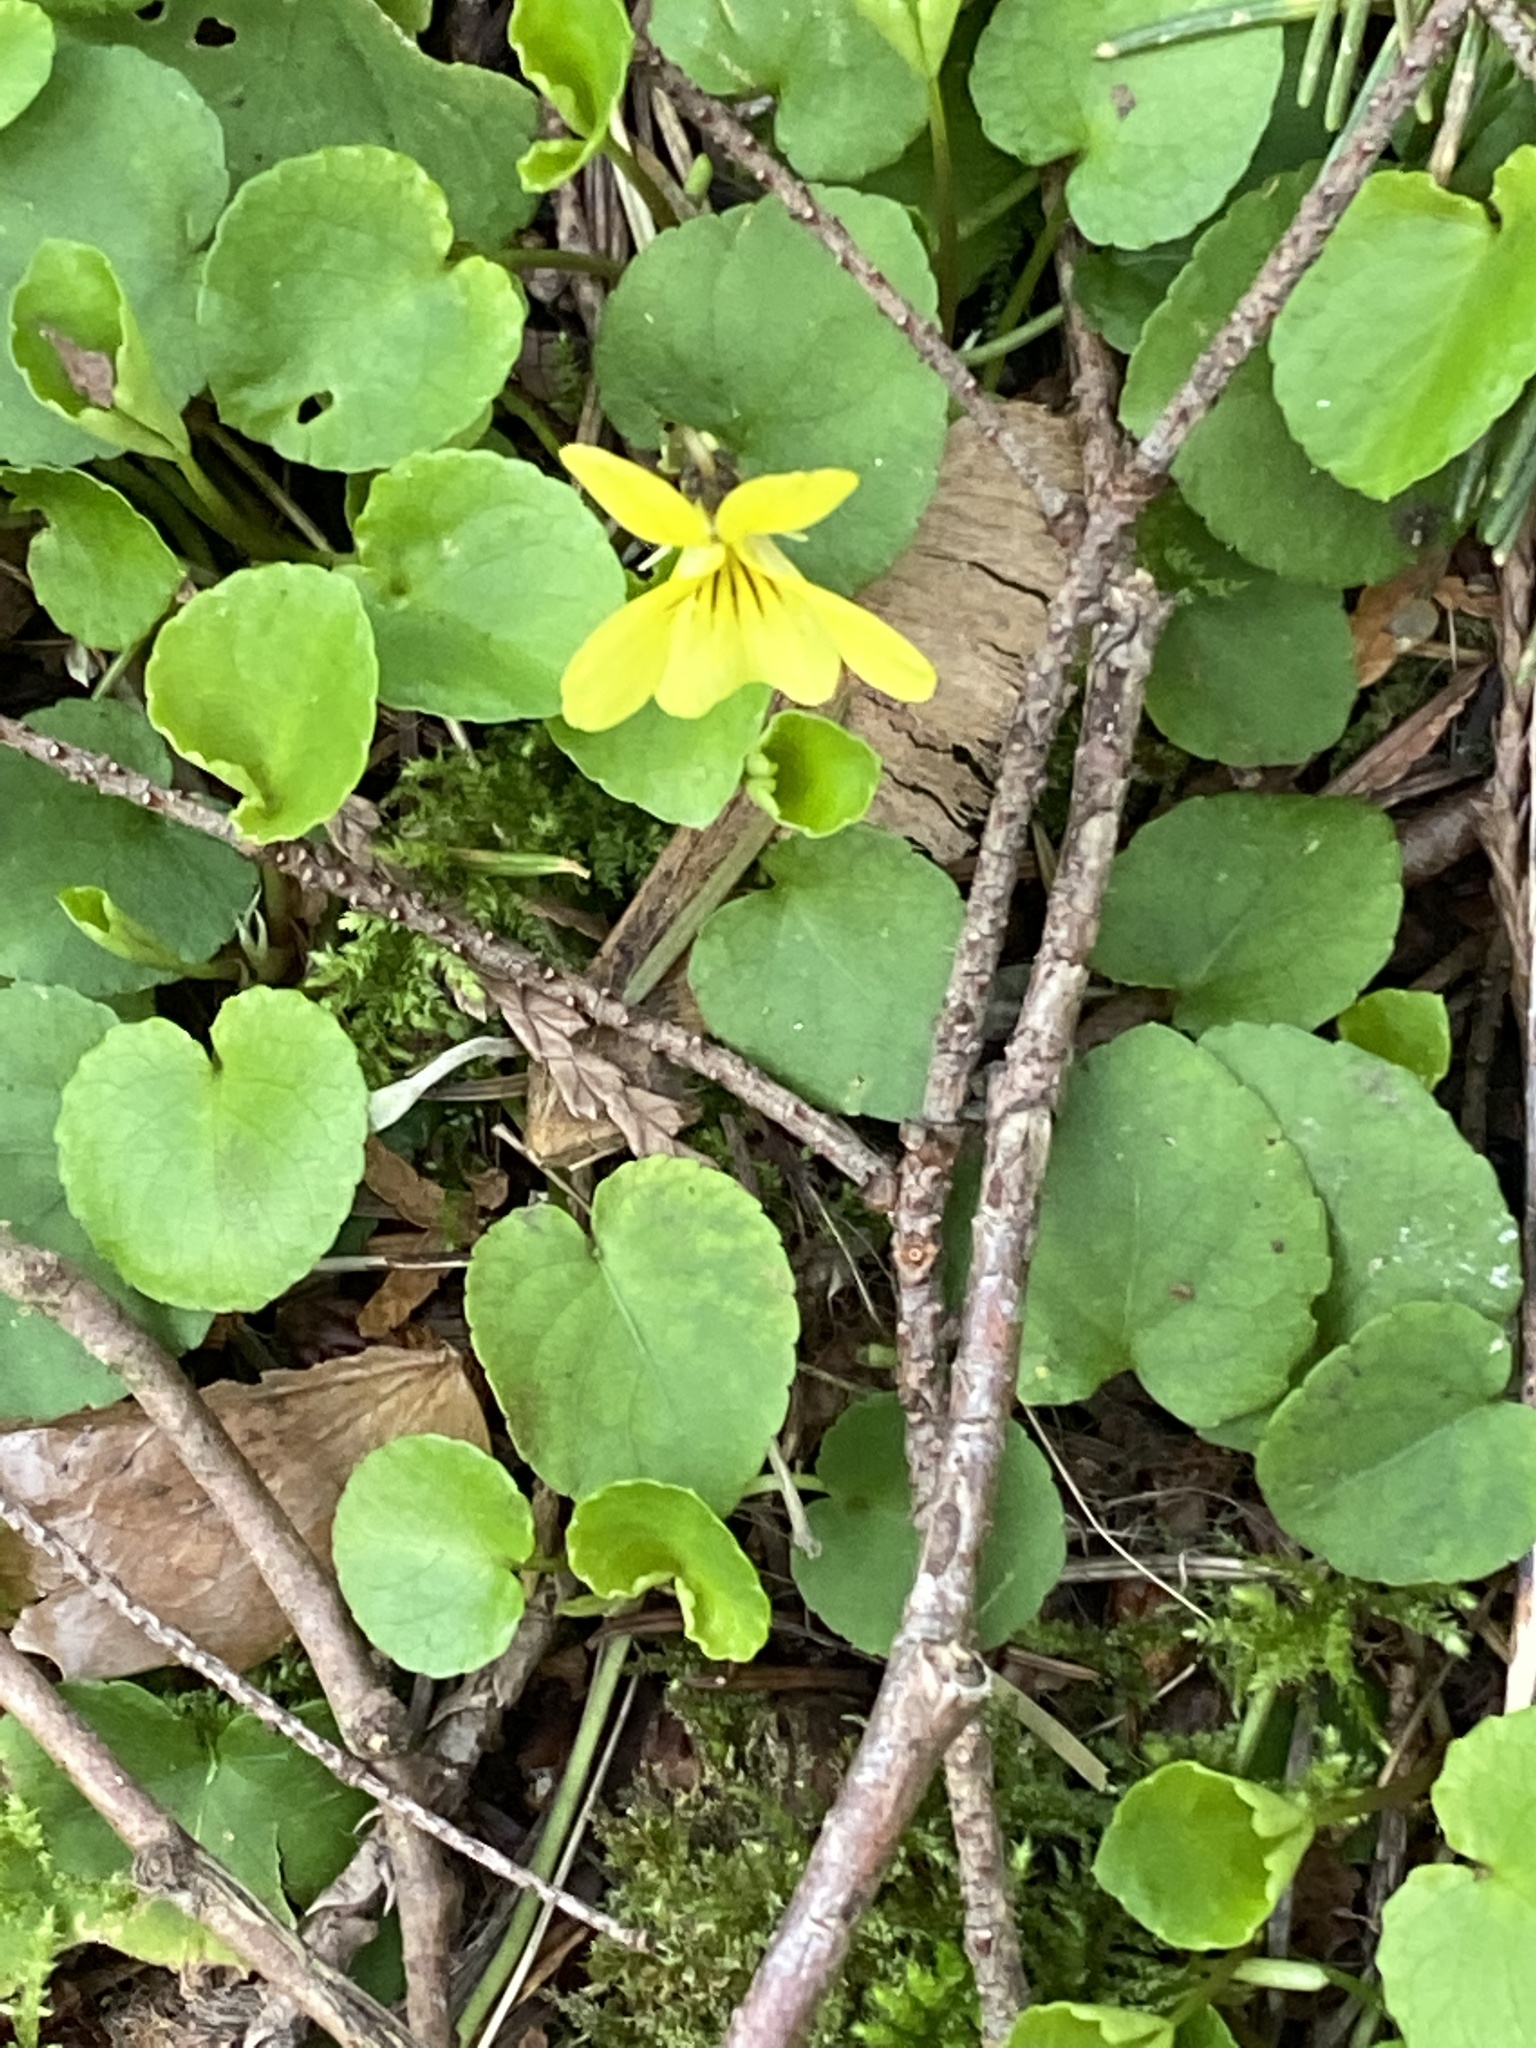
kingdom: Plantae
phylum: Tracheophyta
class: Magnoliopsida
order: Malpighiales
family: Violaceae
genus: Viola
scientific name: Viola sempervirens
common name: Evergreen violet
